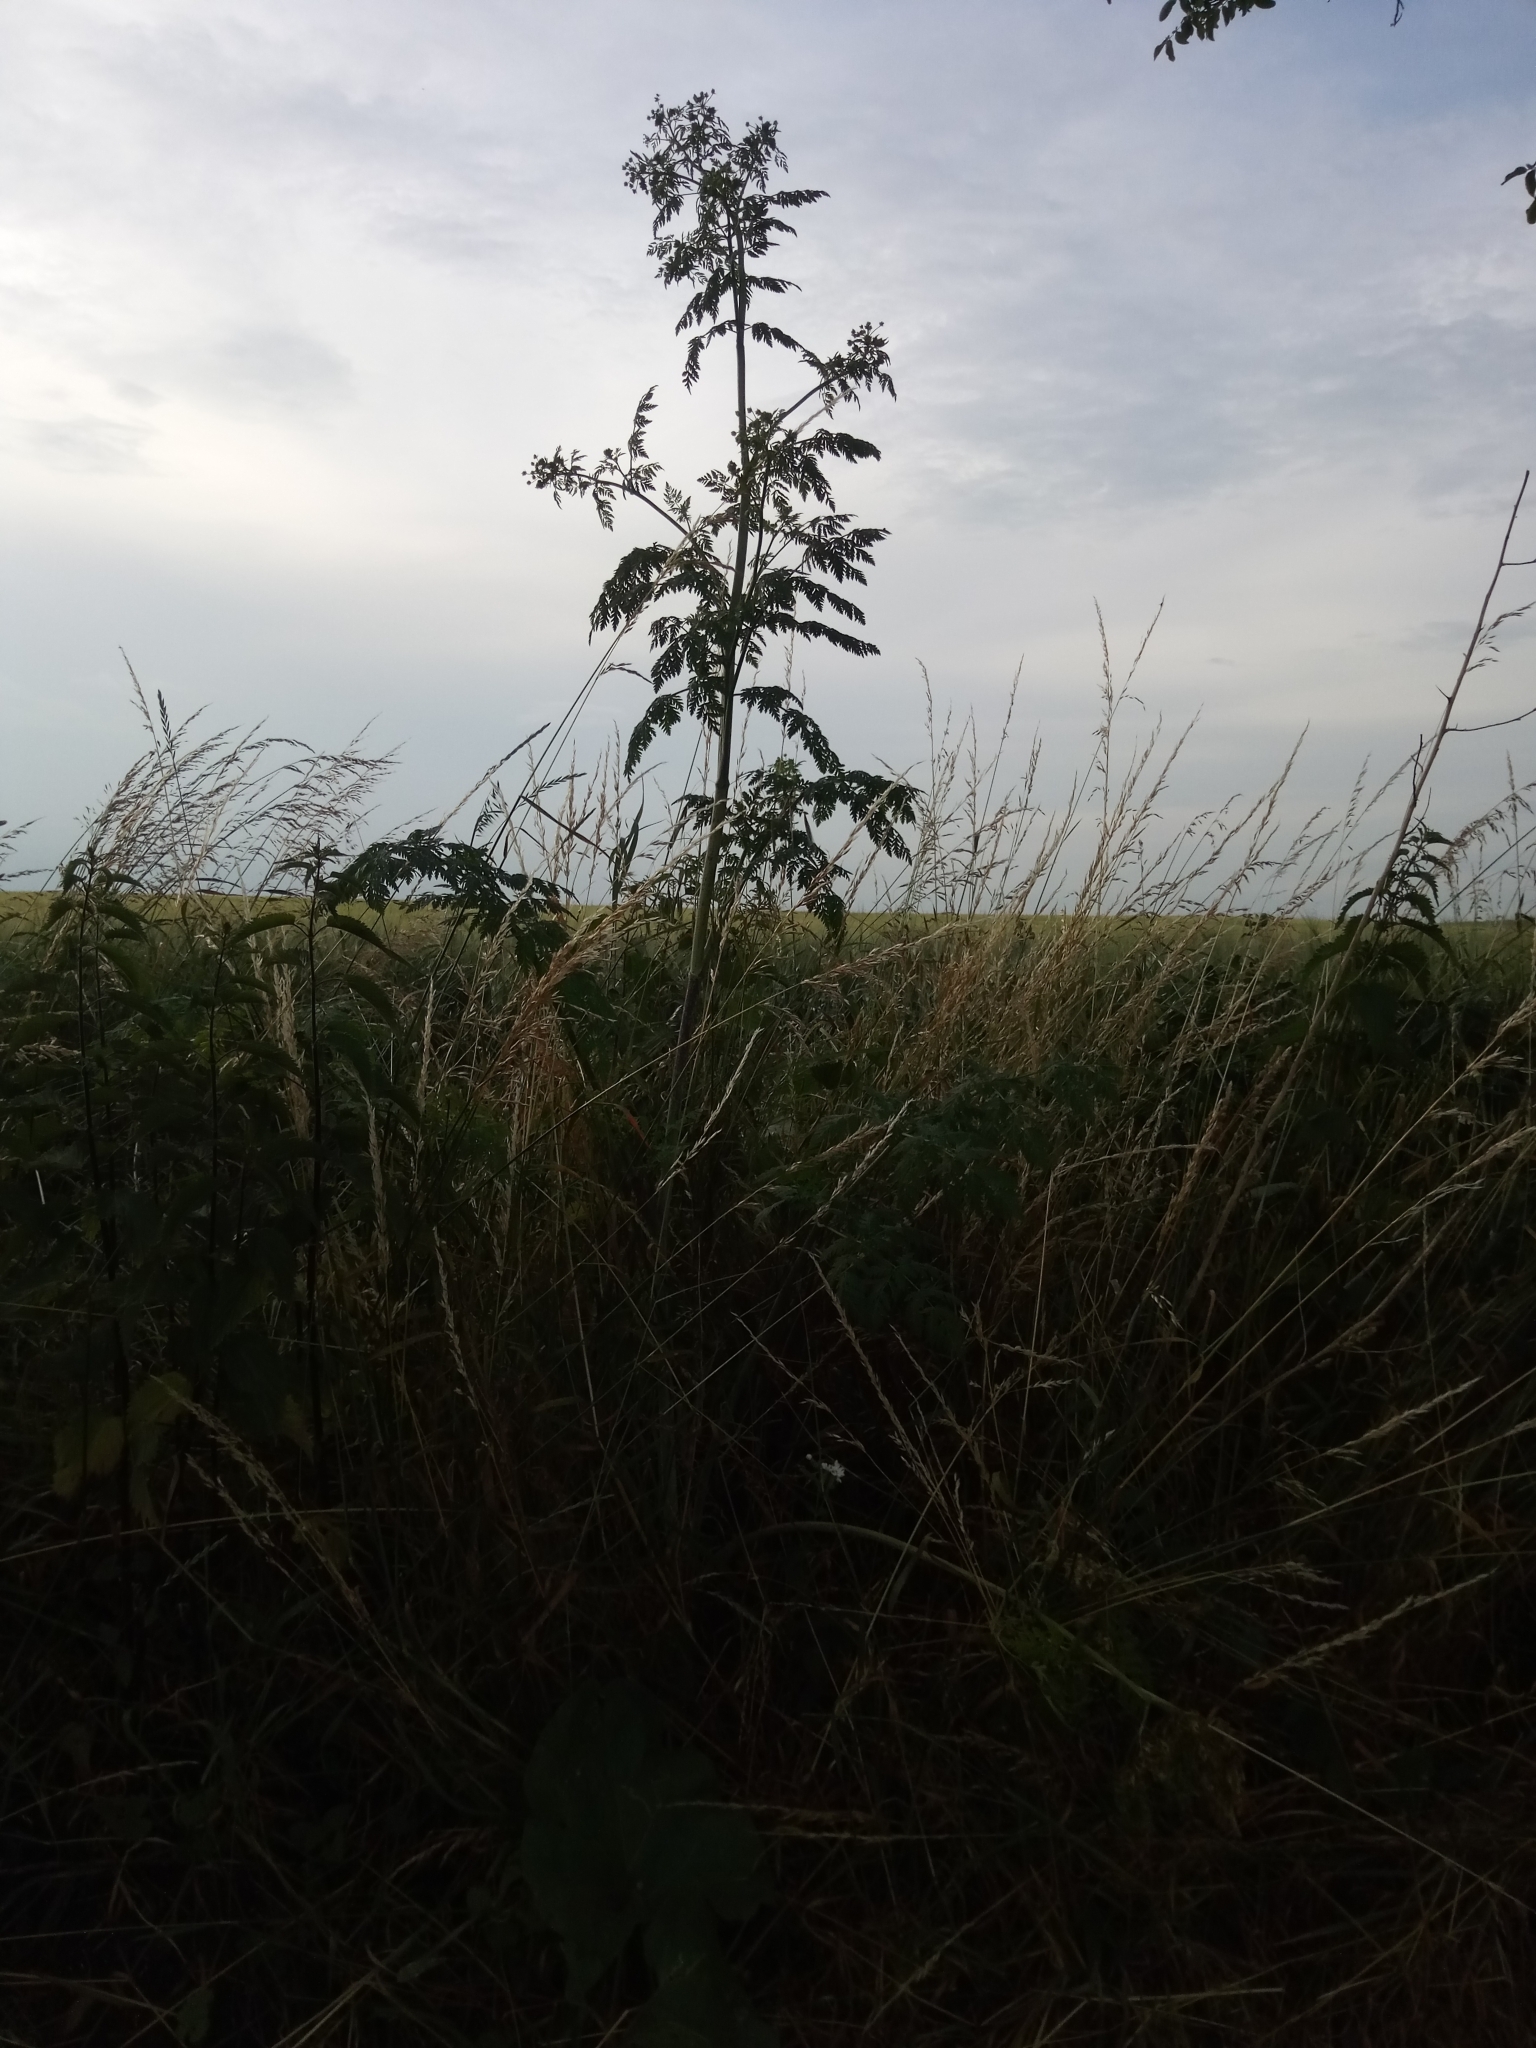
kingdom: Plantae
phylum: Tracheophyta
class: Magnoliopsida
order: Apiales
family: Apiaceae
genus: Conium
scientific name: Conium maculatum
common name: Hemlock
